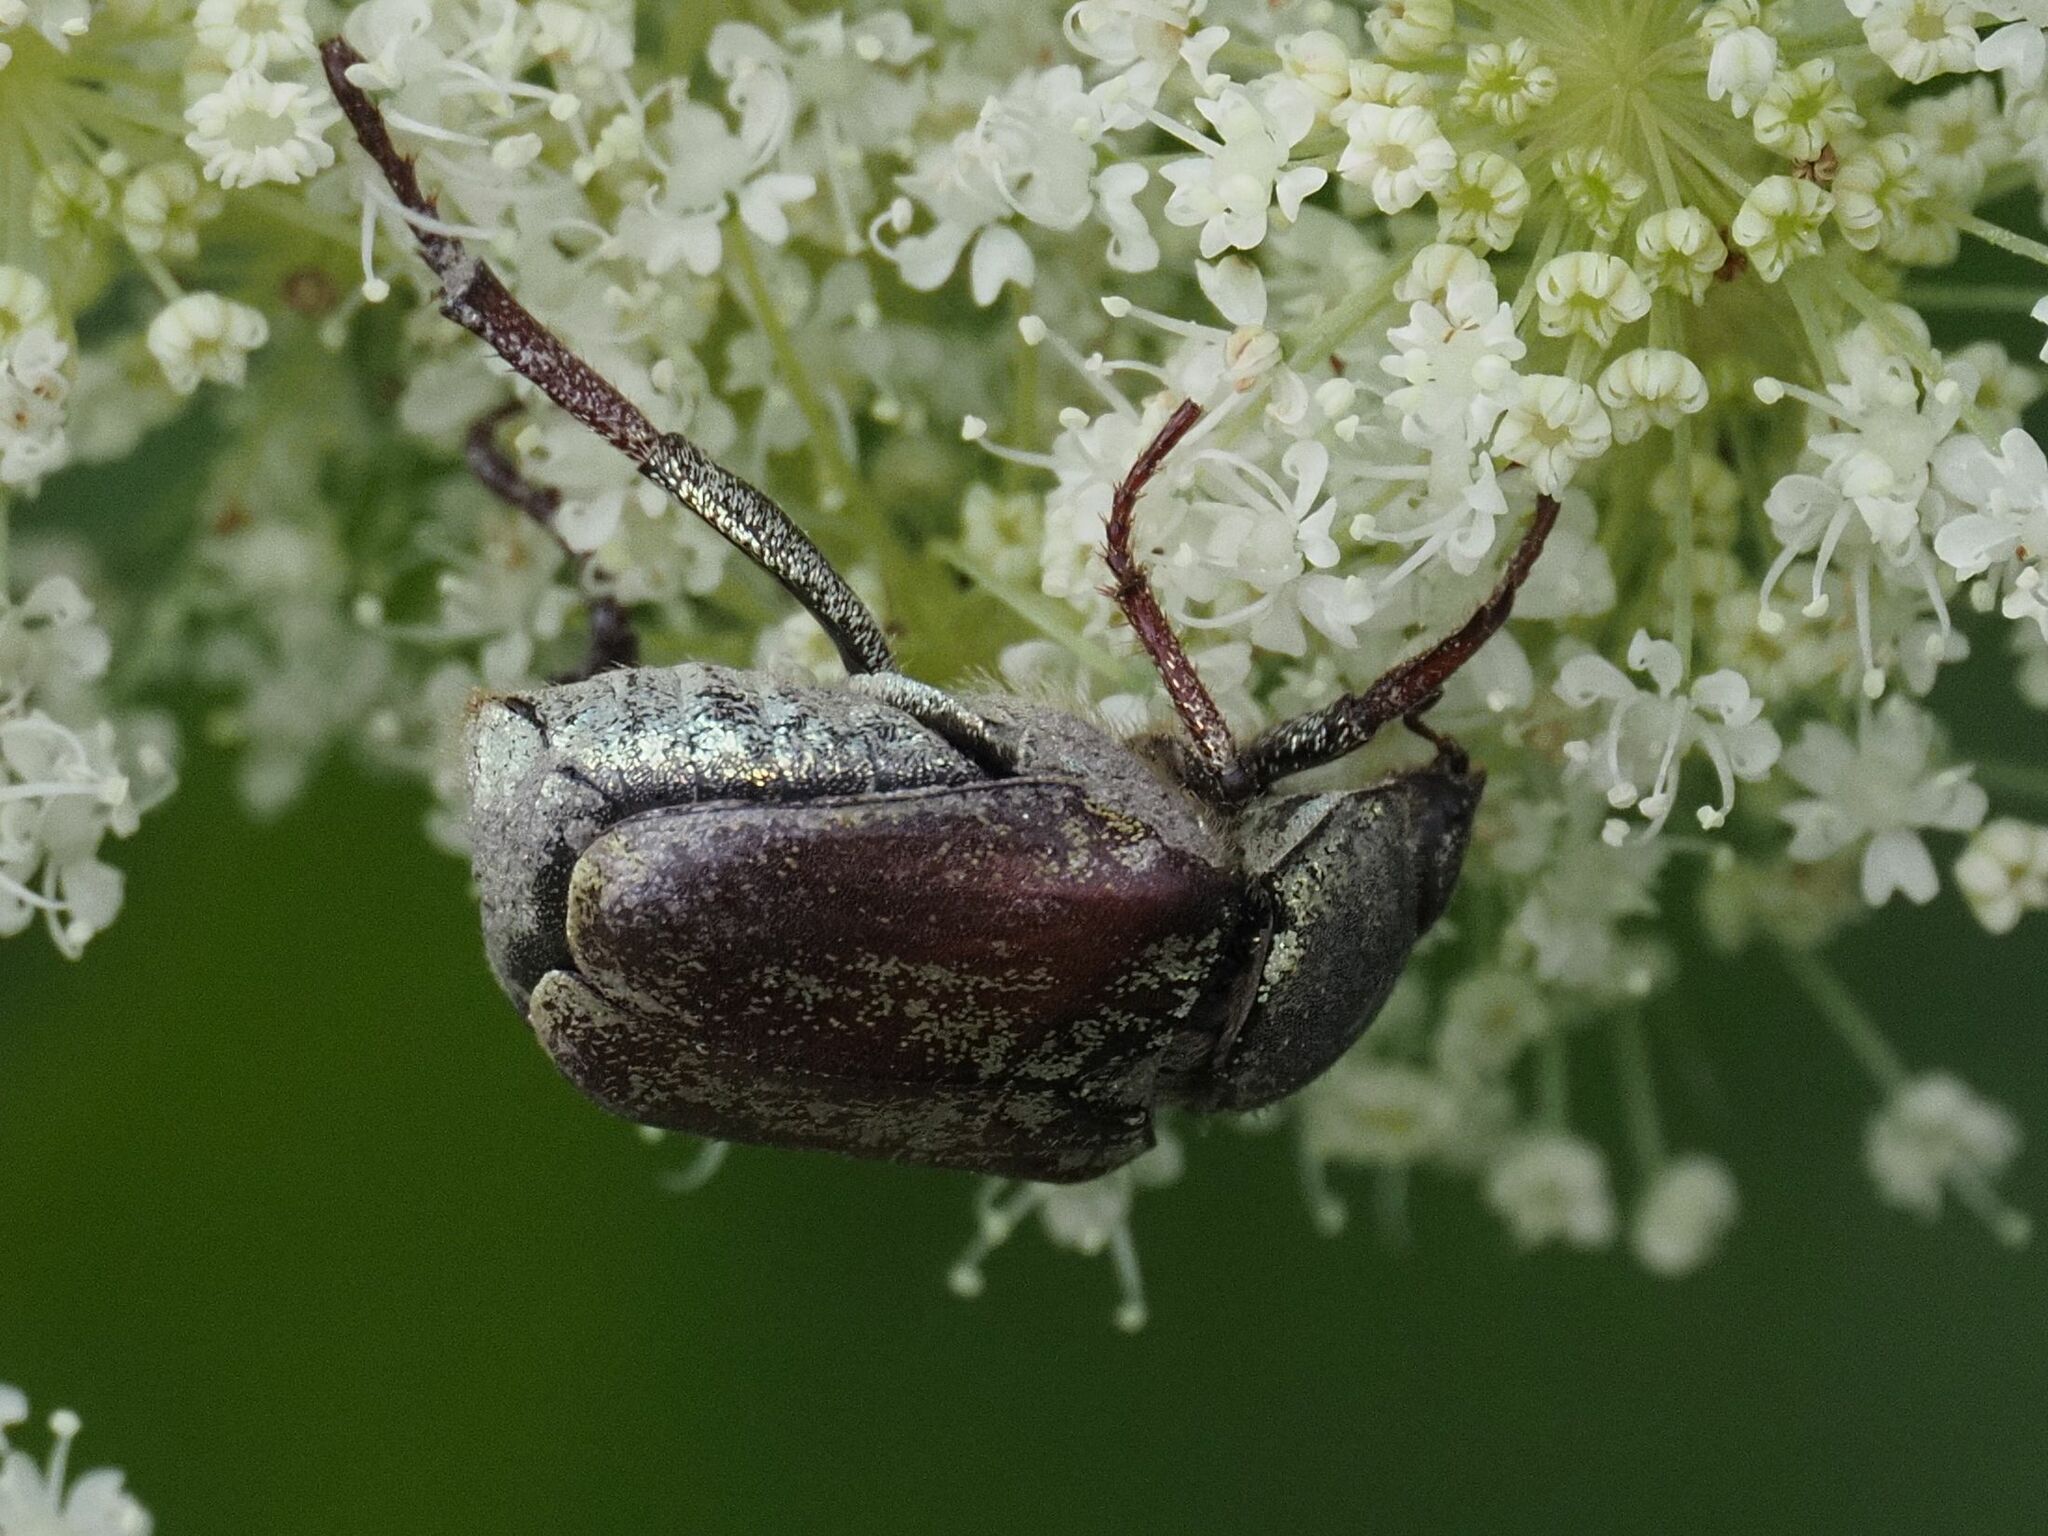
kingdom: Animalia
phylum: Arthropoda
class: Insecta
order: Coleoptera
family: Scarabaeidae
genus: Hoplia
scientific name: Hoplia argentea
